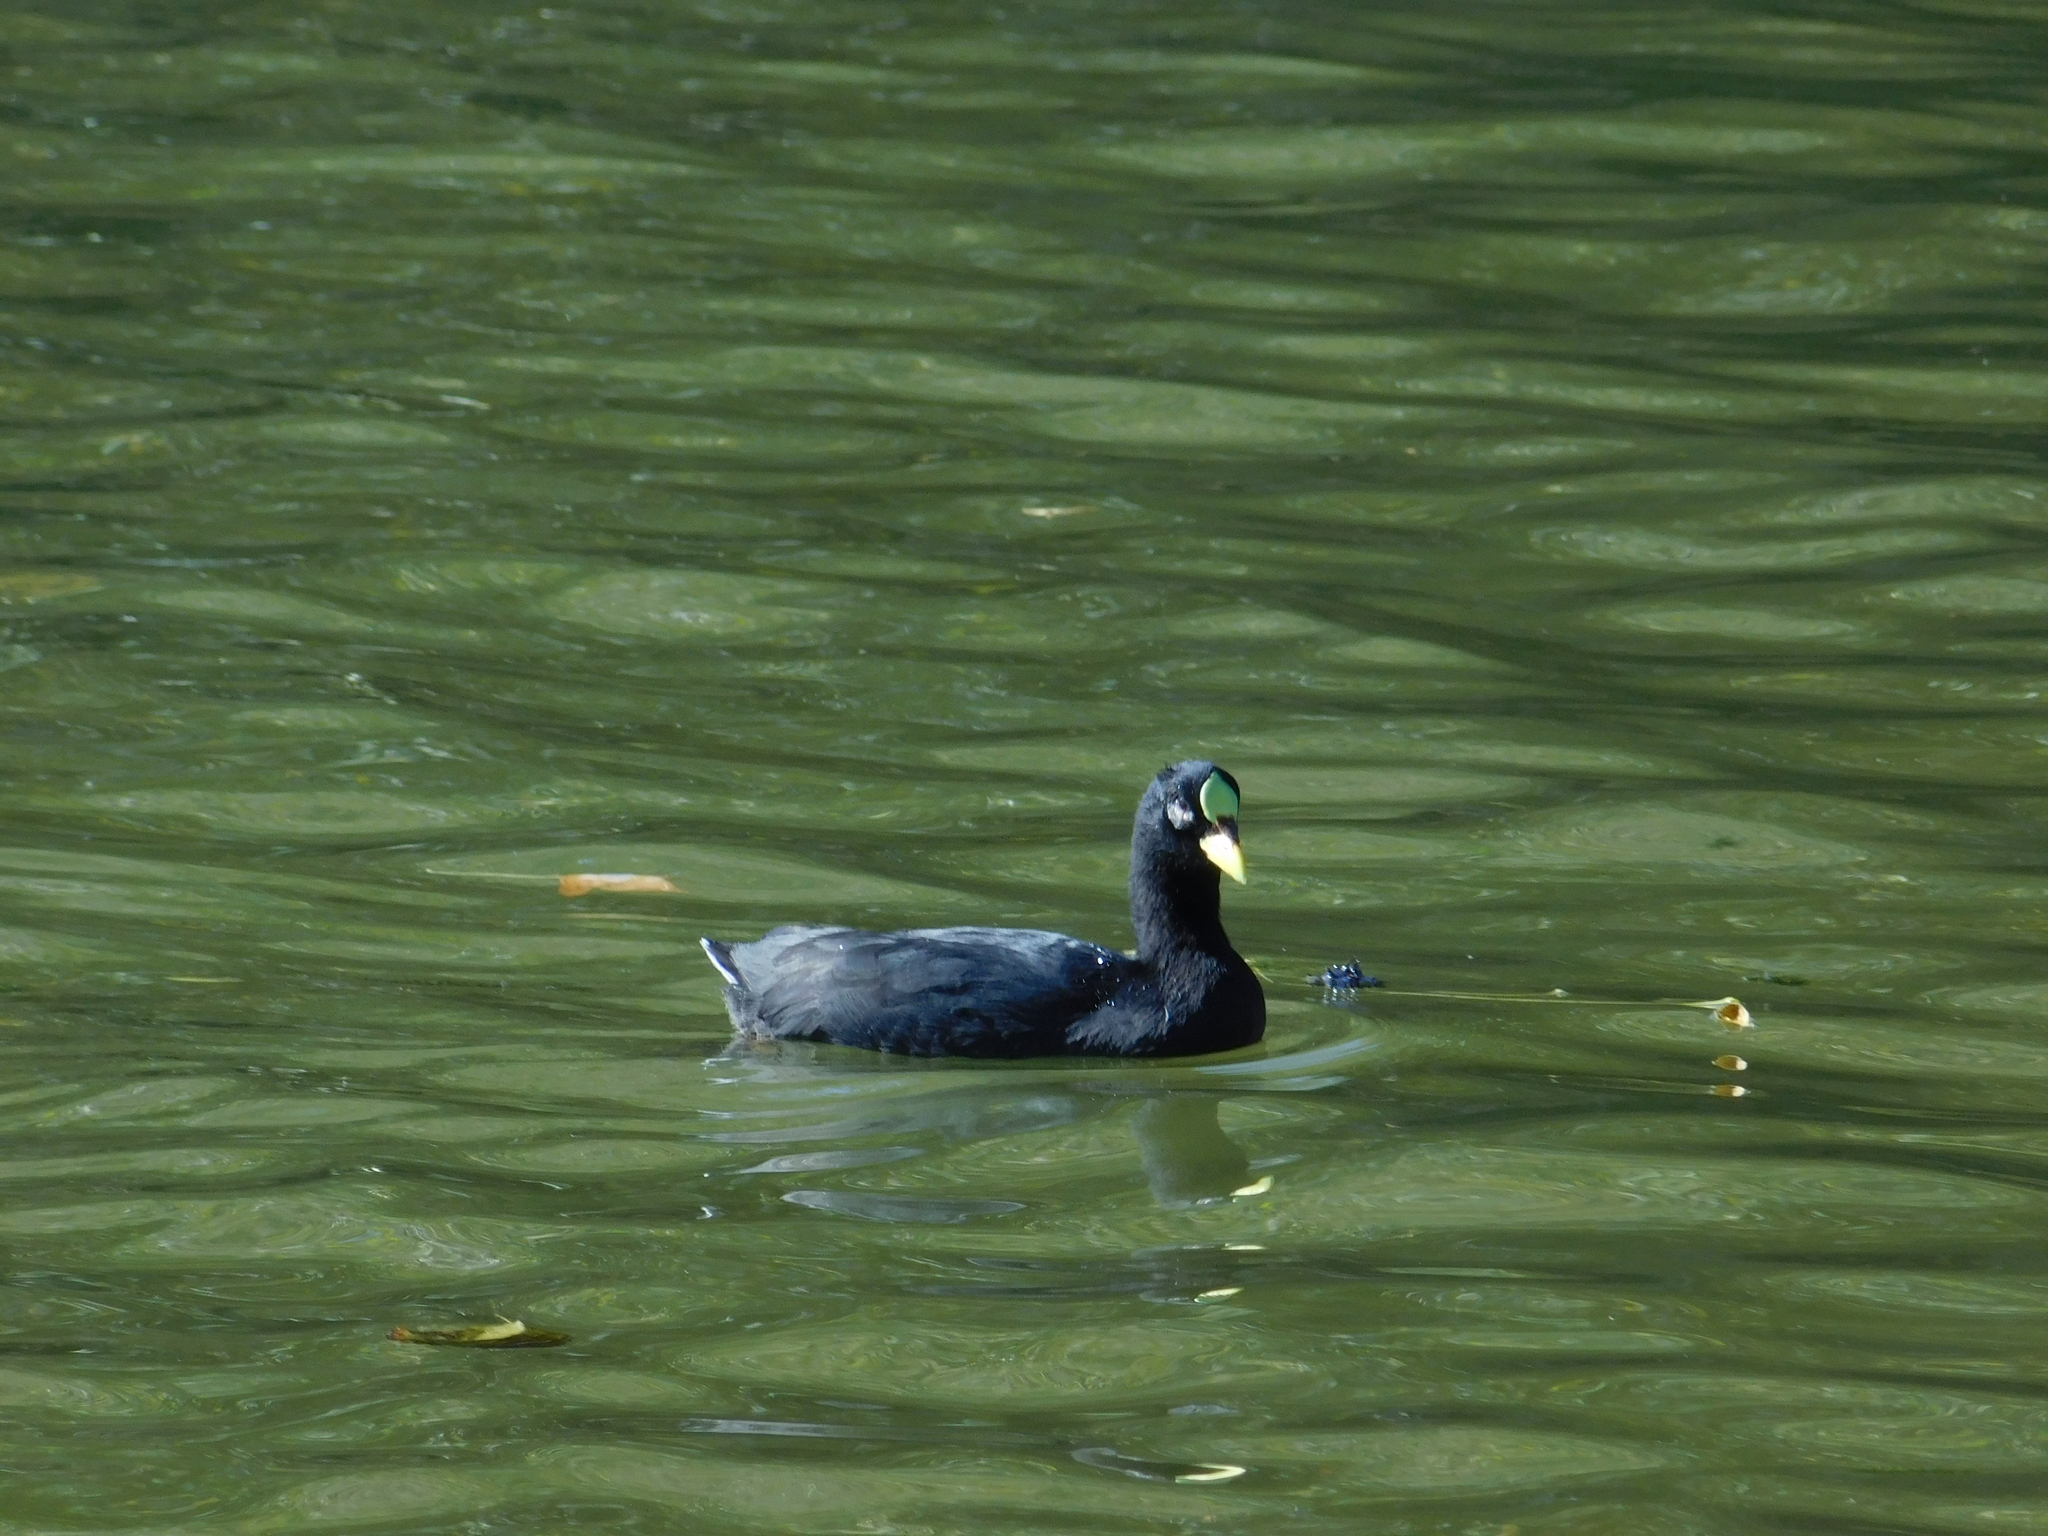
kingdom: Animalia
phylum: Chordata
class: Aves
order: Gruiformes
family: Rallidae
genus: Fulica
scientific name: Fulica armillata
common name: Red-gartered coot
